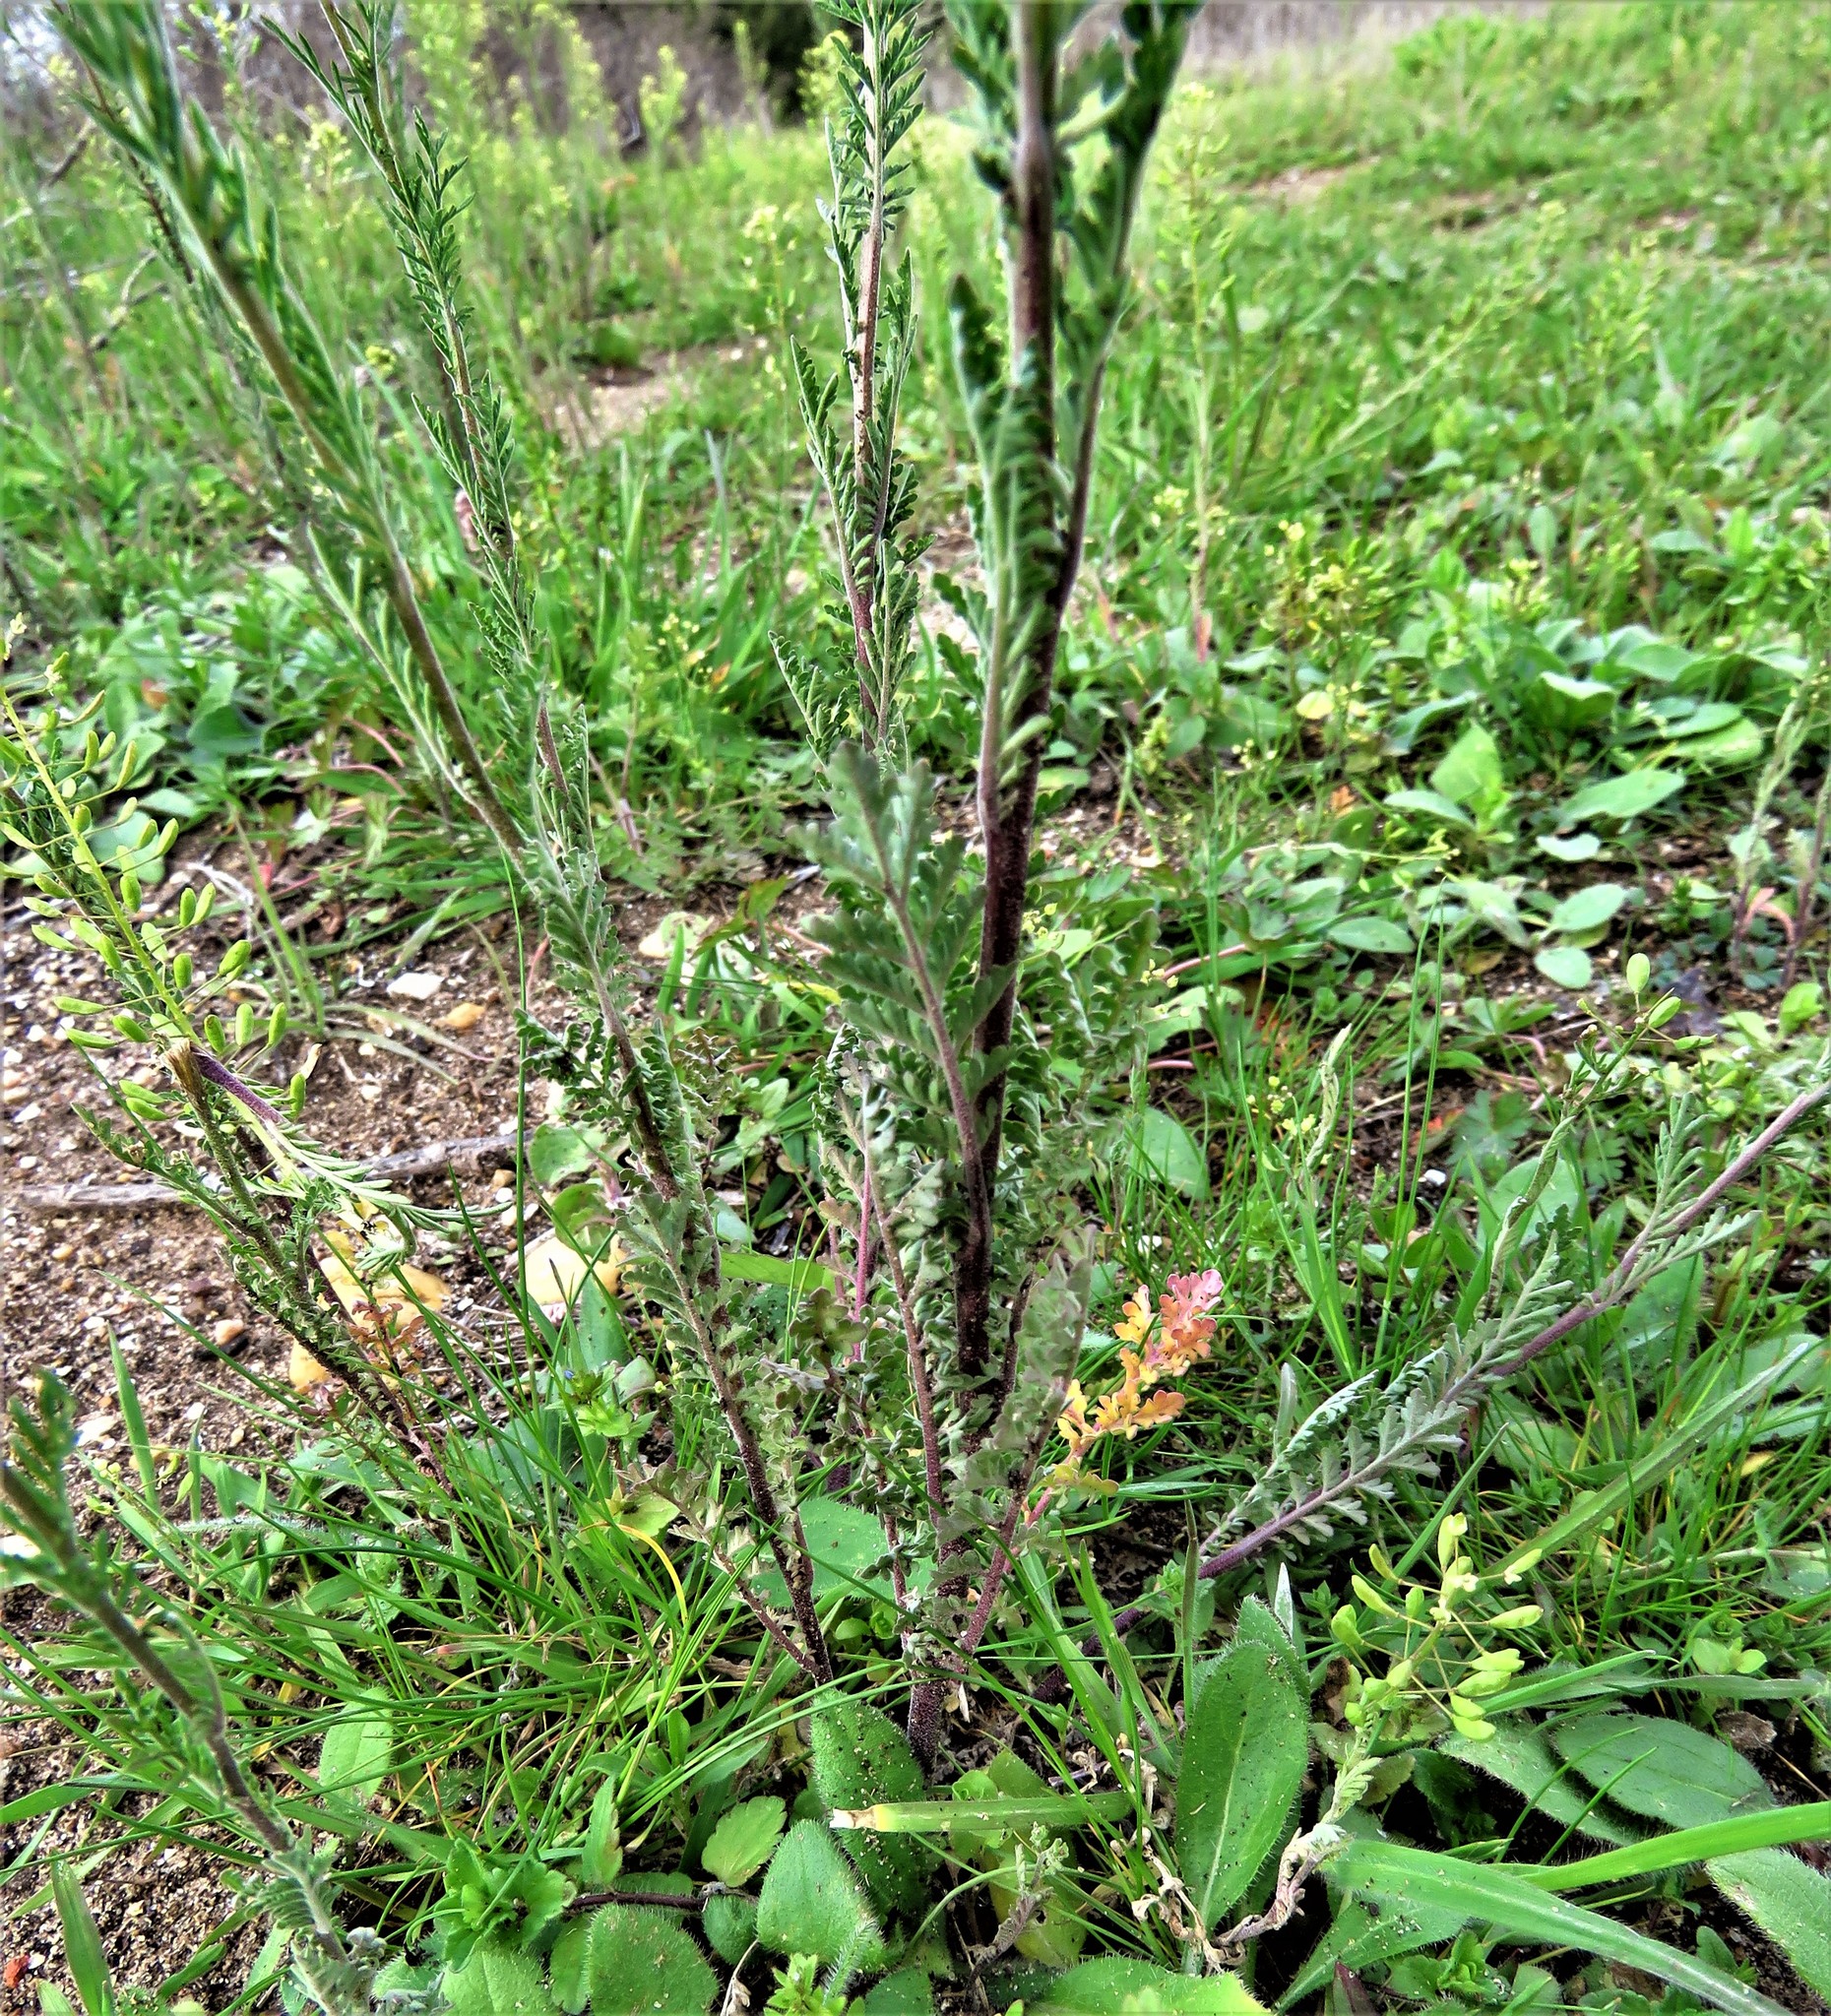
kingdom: Plantae
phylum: Tracheophyta
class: Magnoliopsida
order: Brassicales
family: Brassicaceae
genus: Descurainia
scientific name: Descurainia pinnata
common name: Western tansy mustard
